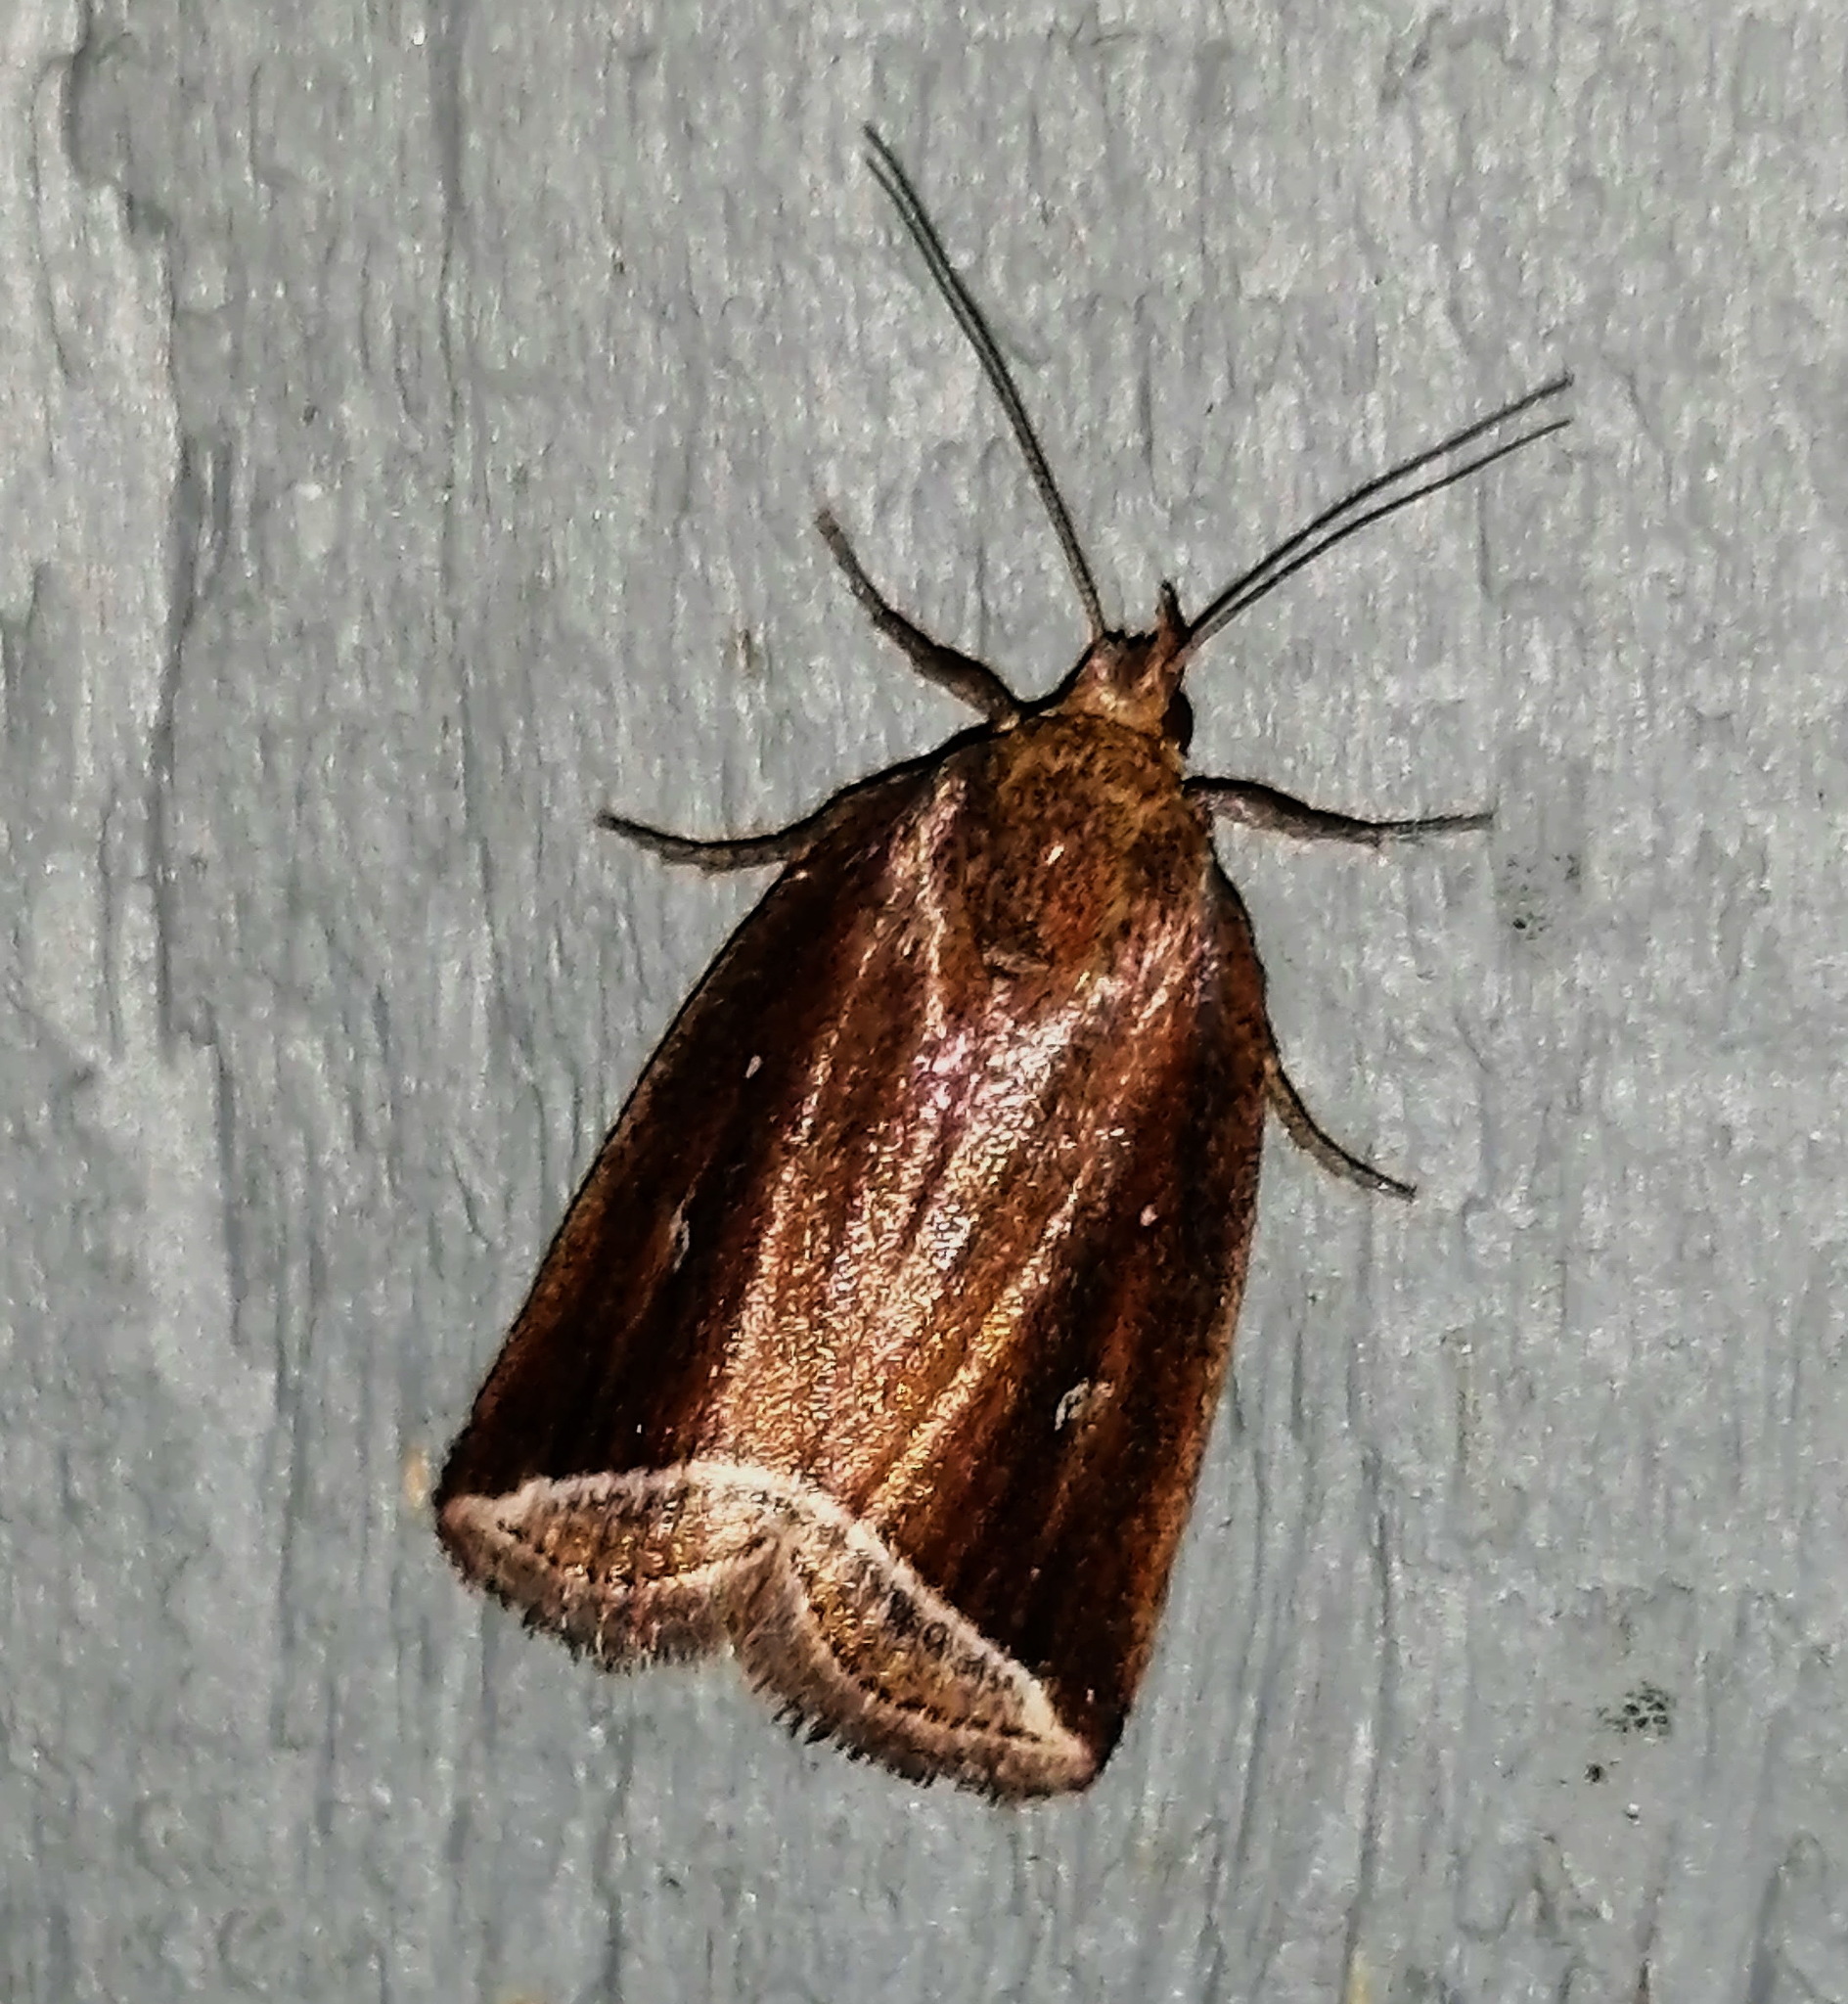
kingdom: Animalia
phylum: Arthropoda
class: Insecta
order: Lepidoptera
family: Erebidae
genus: Capis
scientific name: Capis curvata
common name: Curved halter moth
